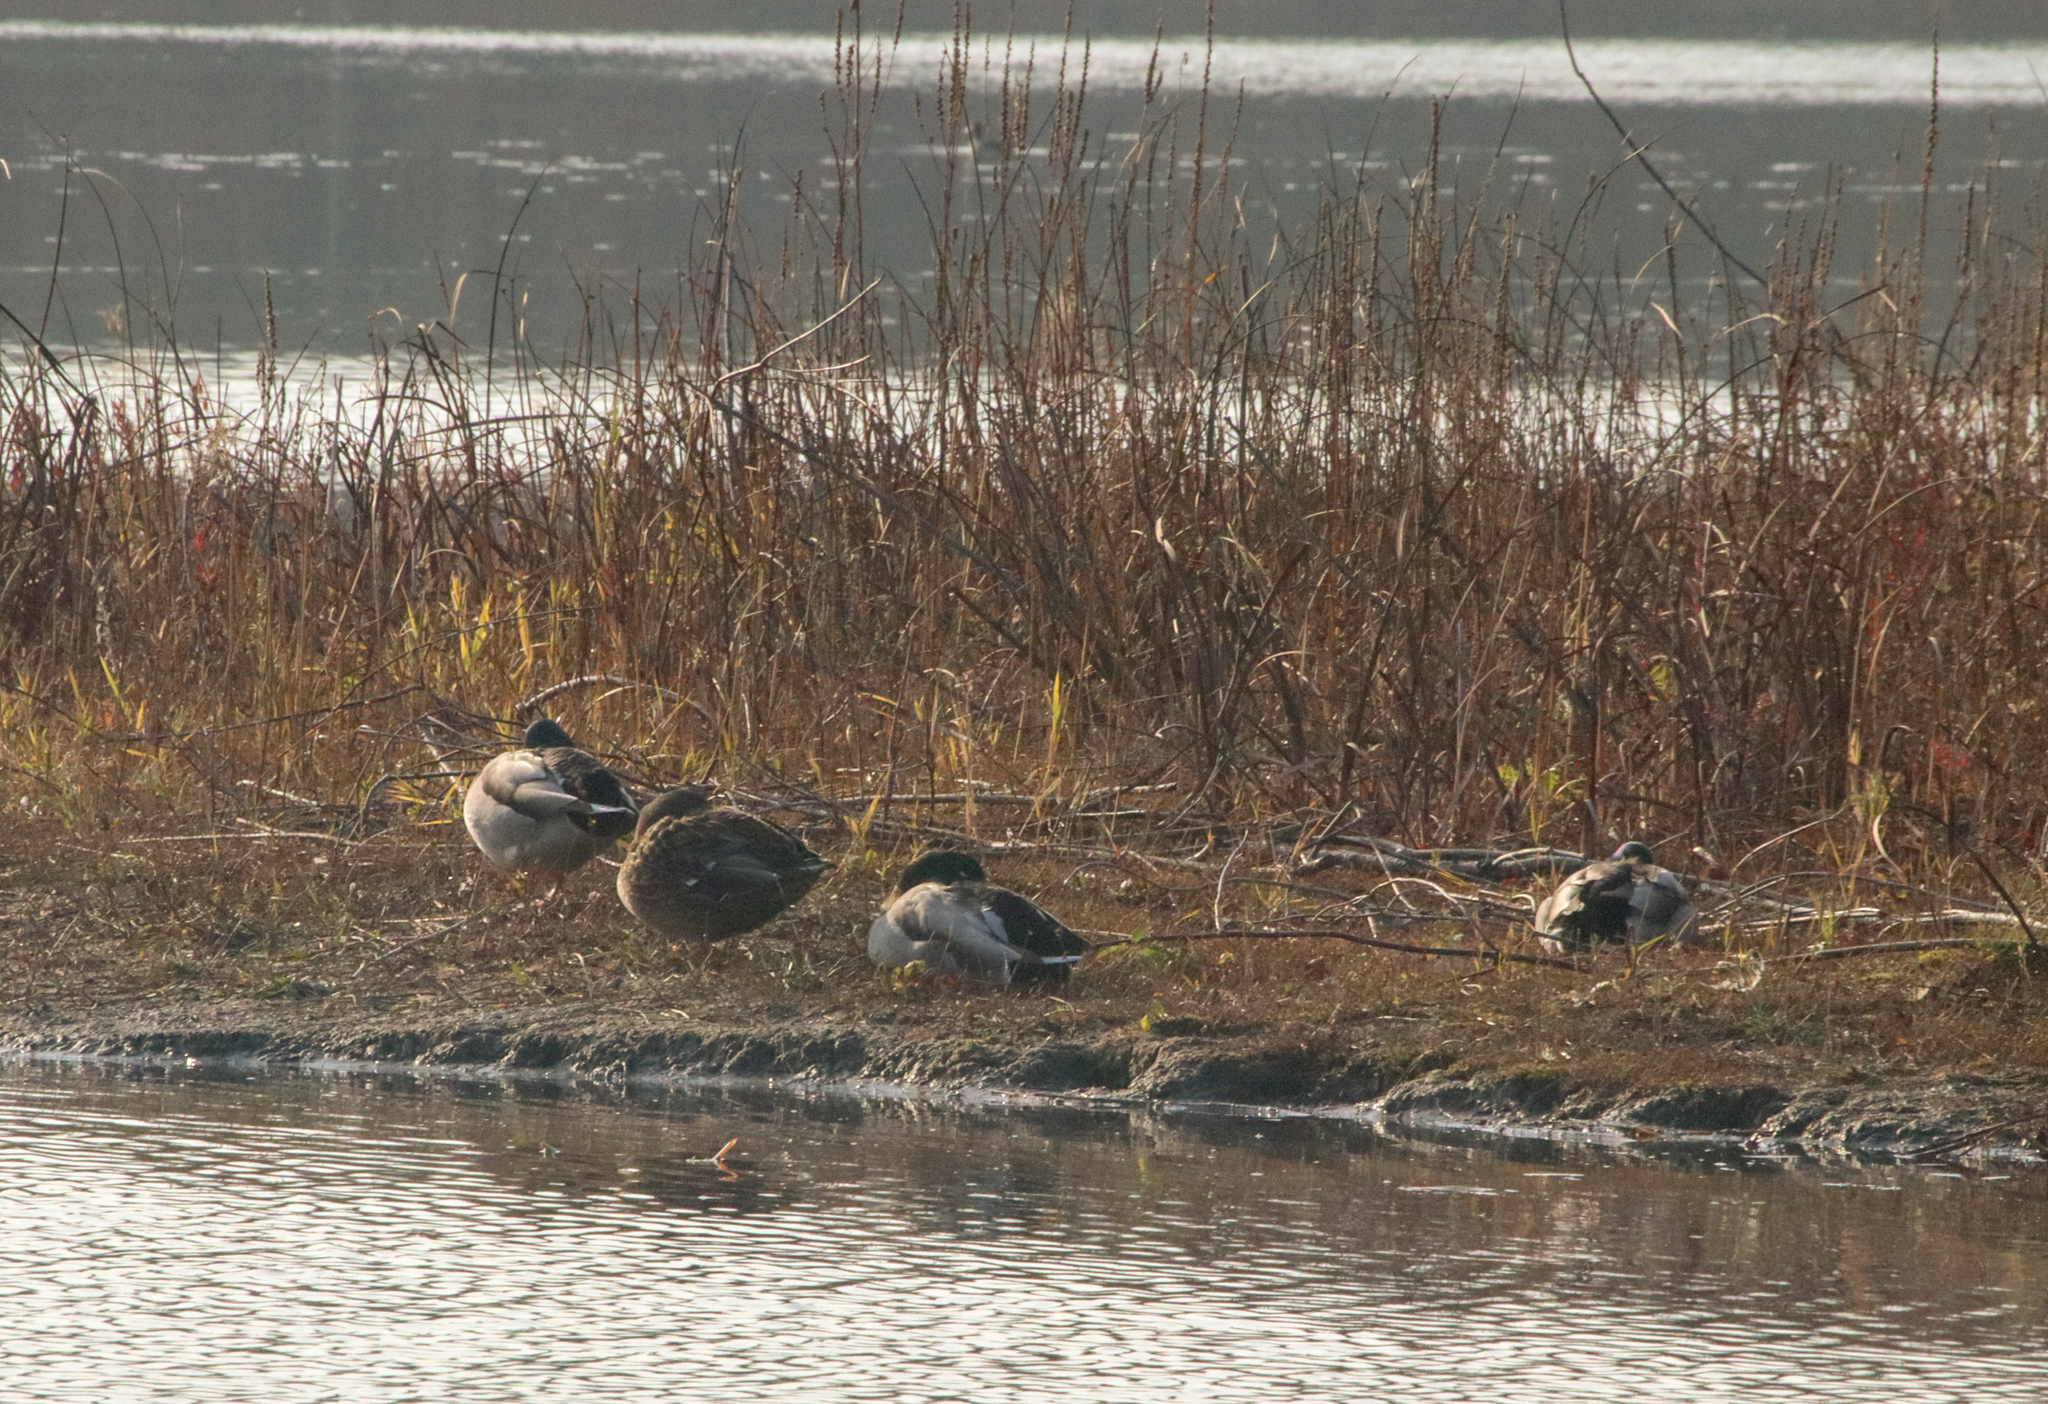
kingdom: Animalia
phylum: Chordata
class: Aves
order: Anseriformes
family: Anatidae
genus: Anas
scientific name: Anas platyrhynchos
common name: Mallard
